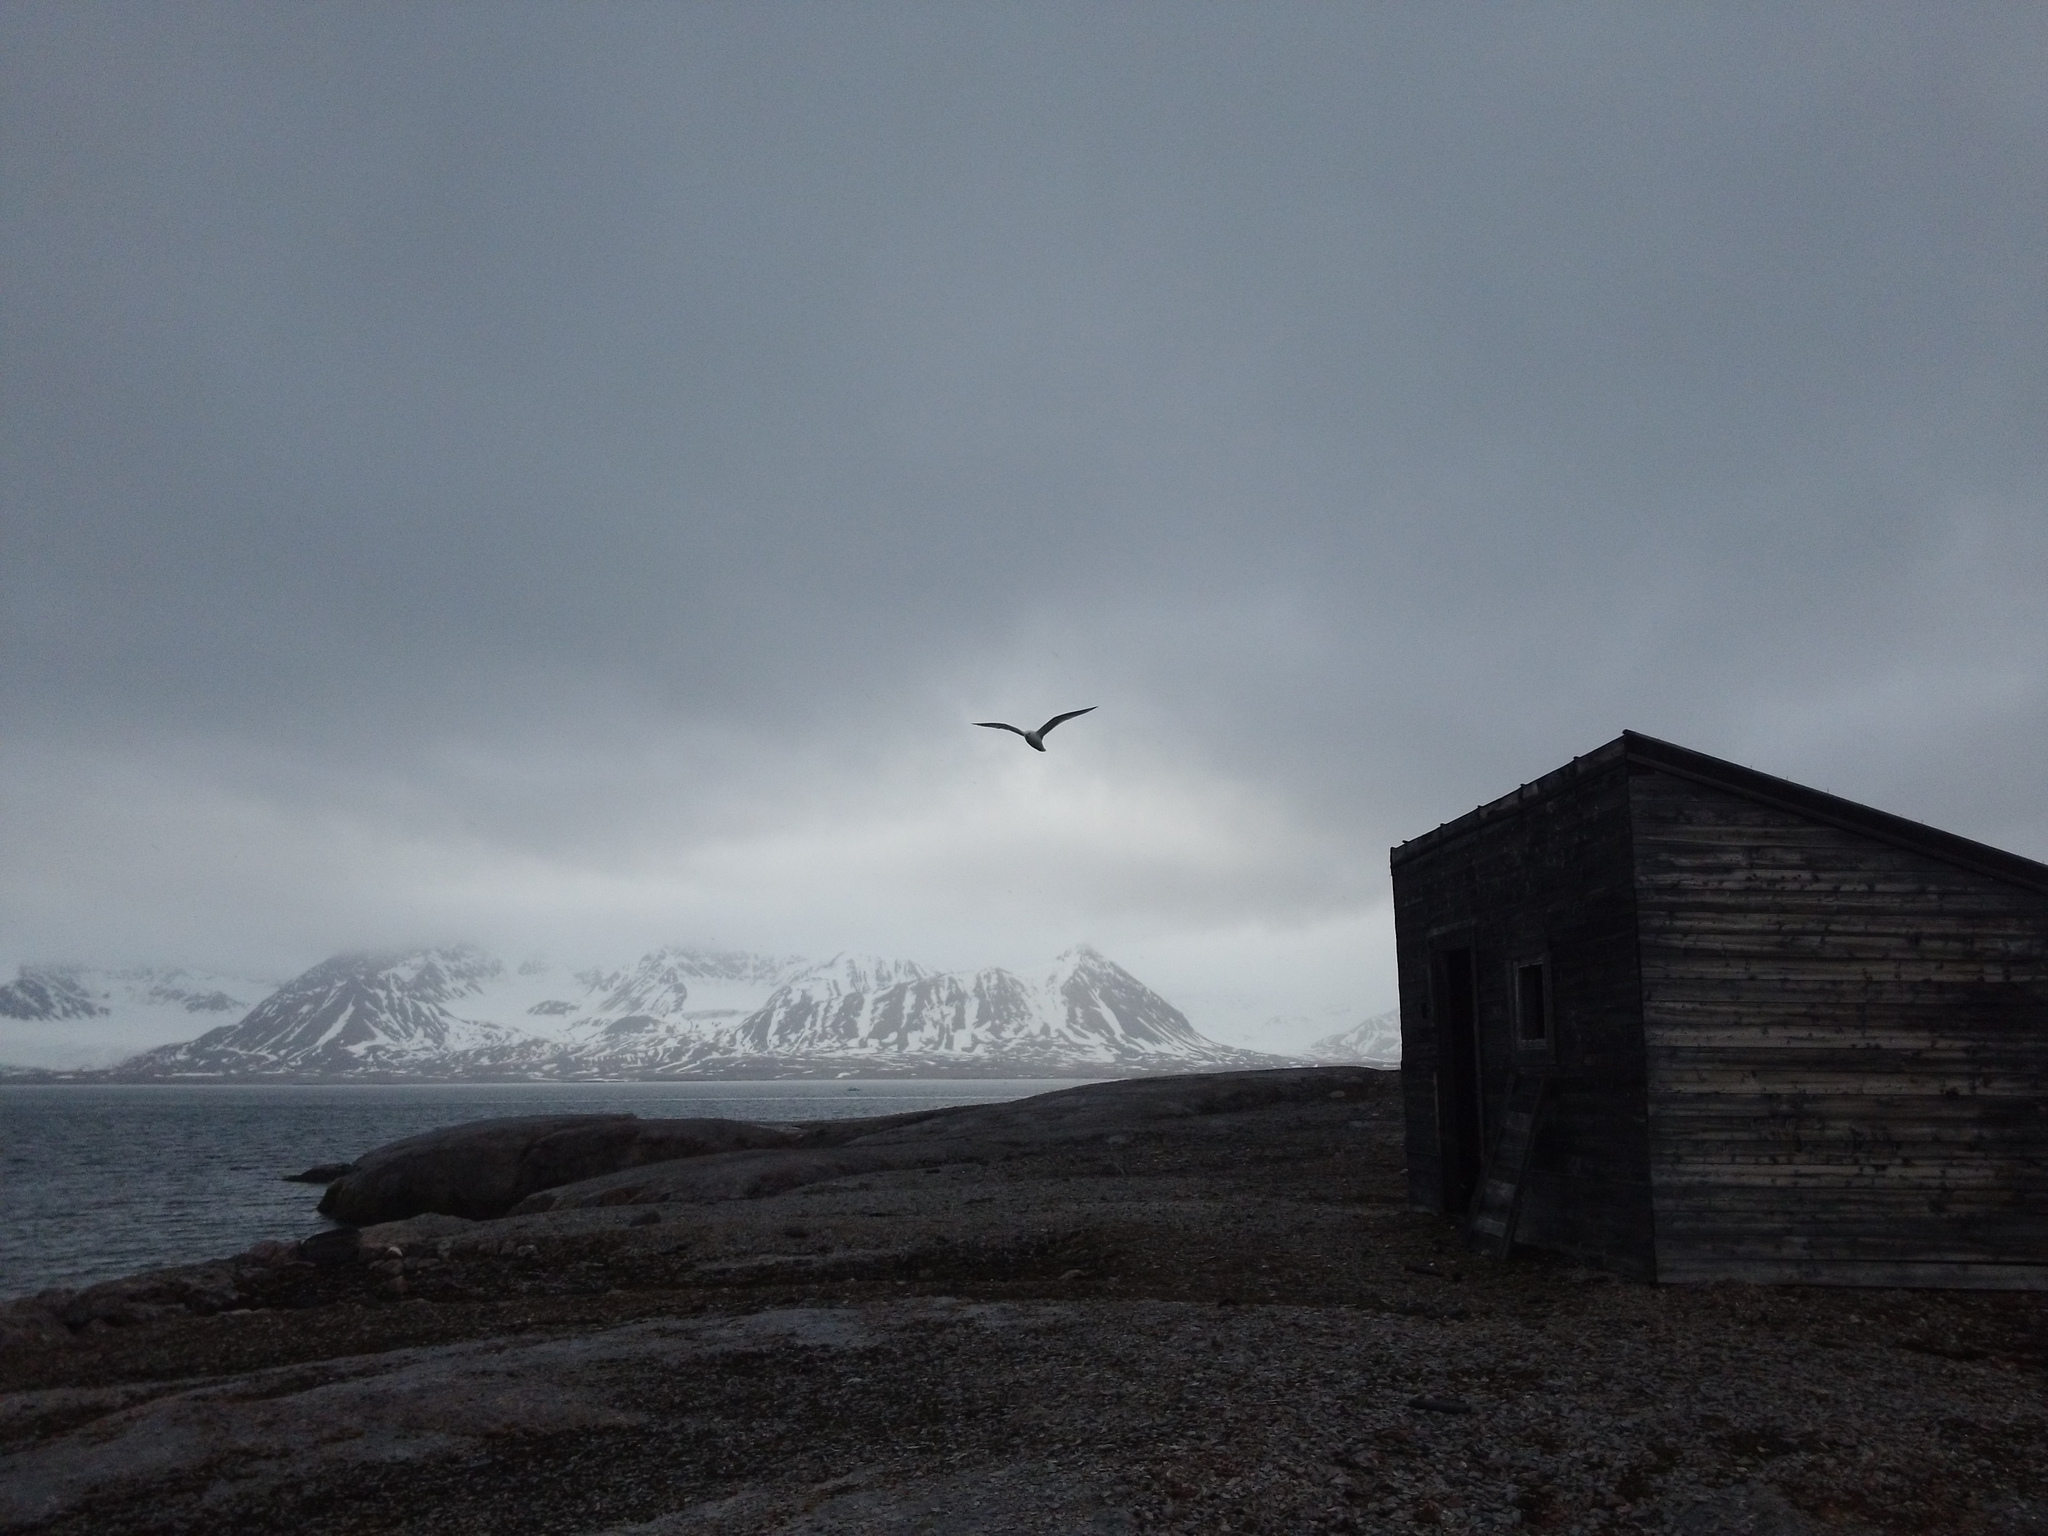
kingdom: Animalia
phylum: Chordata
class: Aves
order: Procellariiformes
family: Procellariidae
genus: Fulmarus
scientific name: Fulmarus glacialis
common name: Northern fulmar
